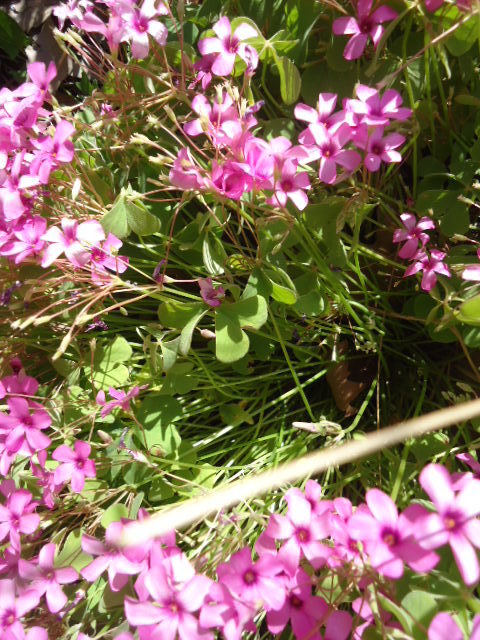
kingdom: Plantae
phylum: Tracheophyta
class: Magnoliopsida
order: Oxalidales
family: Oxalidaceae
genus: Oxalis
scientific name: Oxalis articulata
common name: Pink-sorrel
